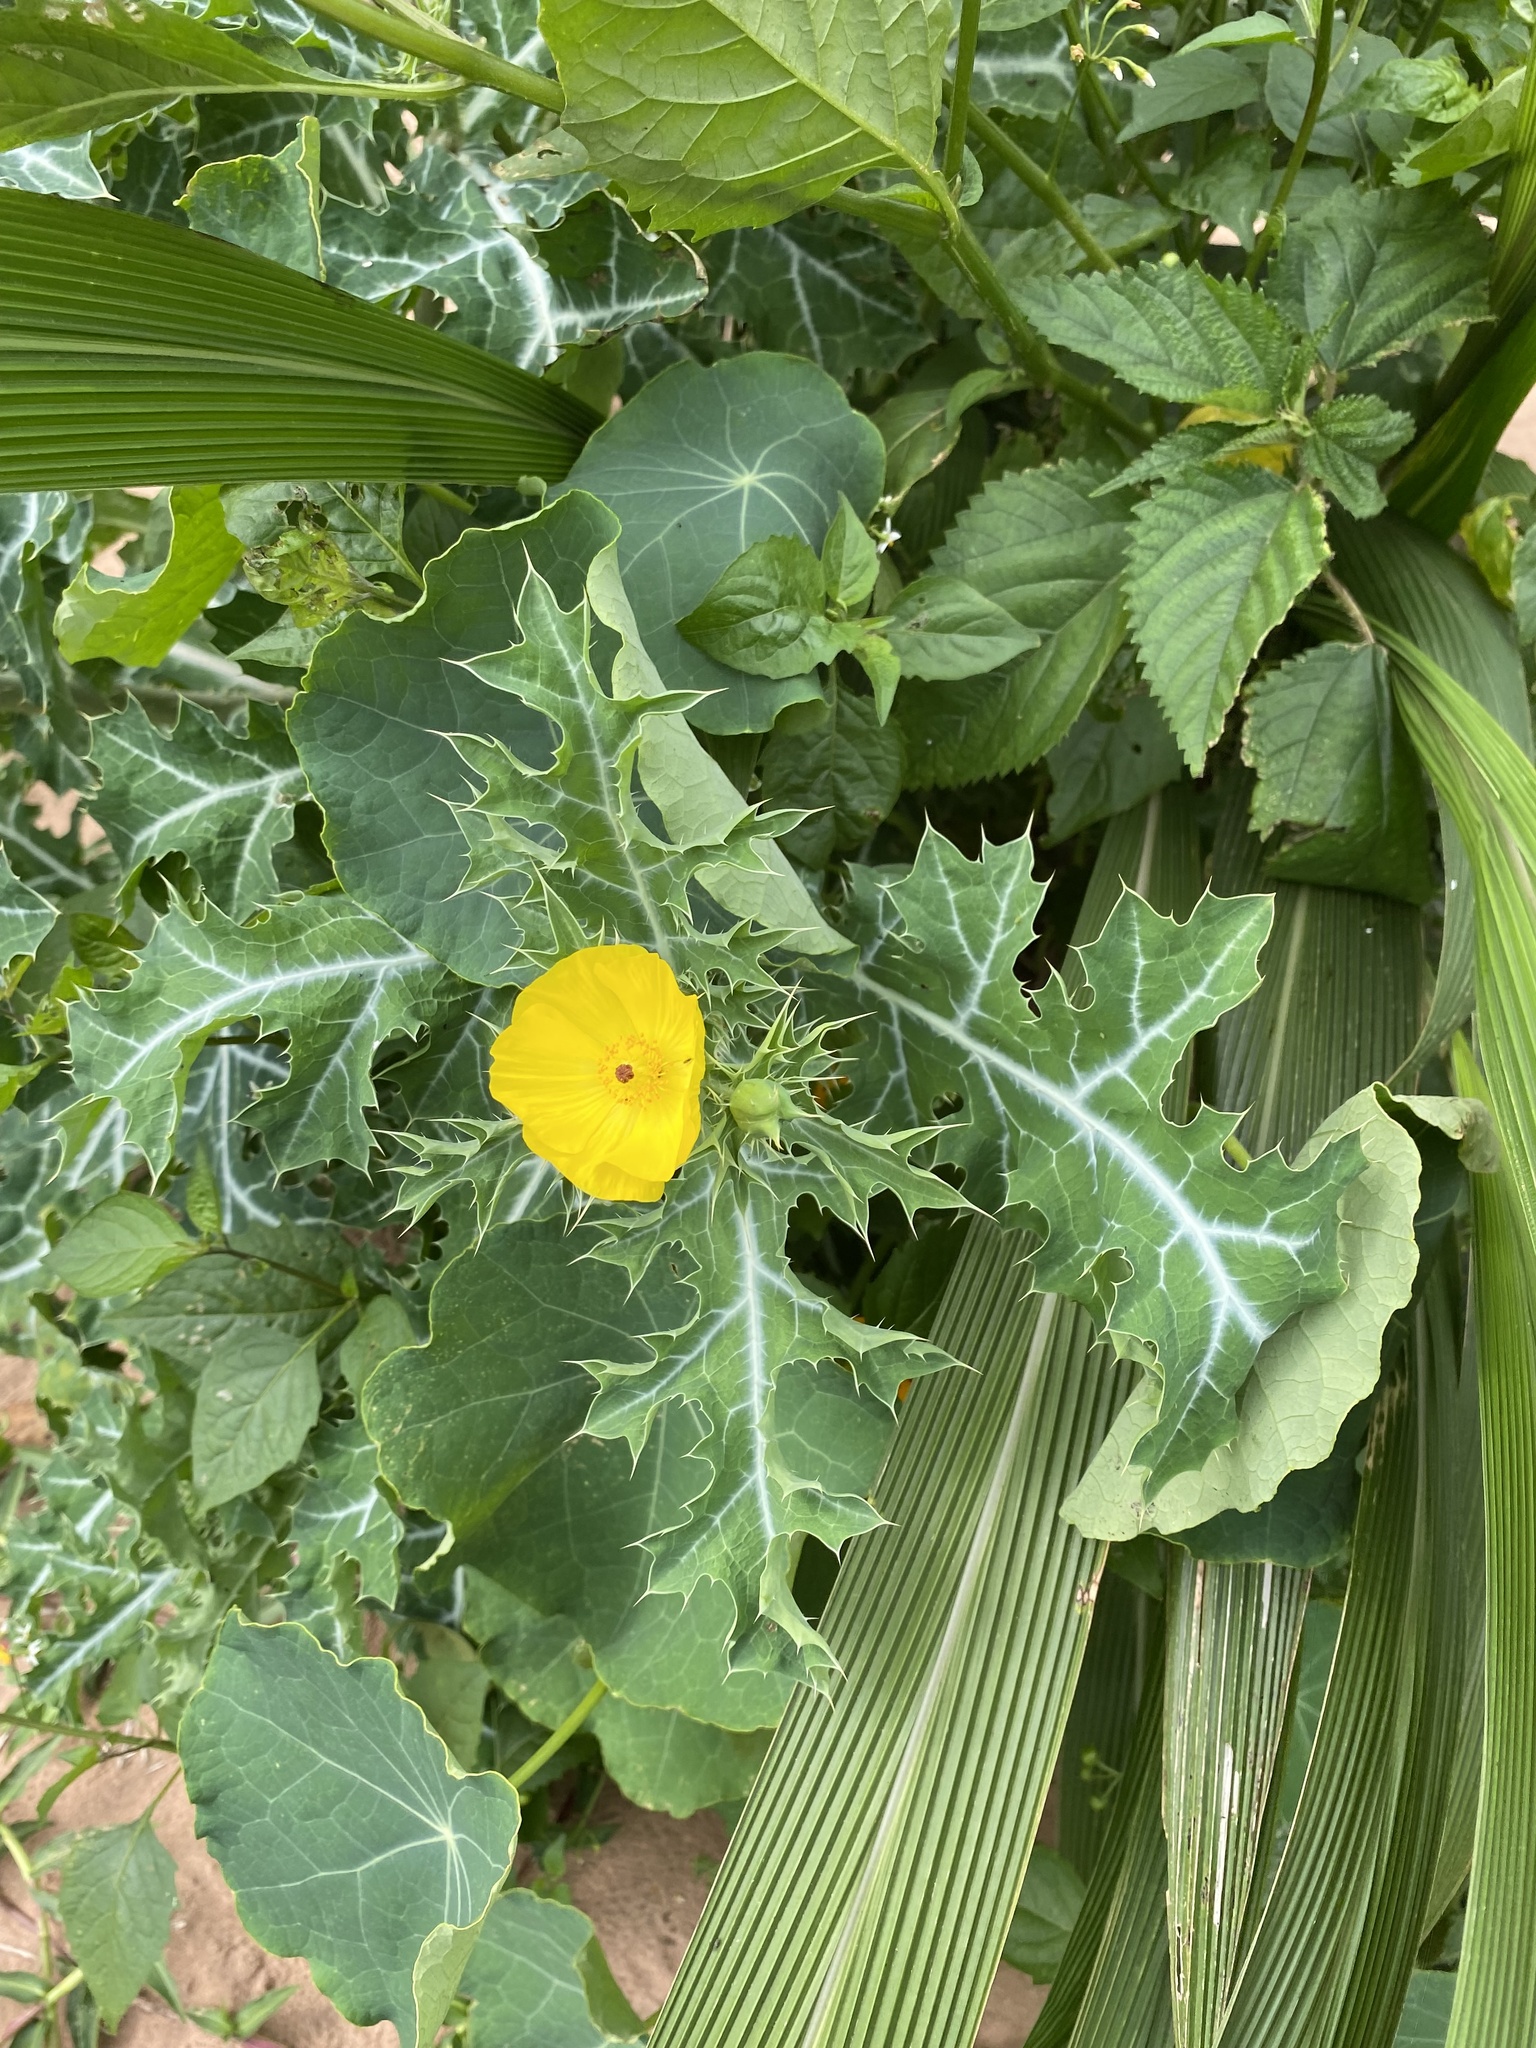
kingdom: Plantae
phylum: Tracheophyta
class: Magnoliopsida
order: Ranunculales
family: Papaveraceae
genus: Argemone
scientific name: Argemone mexicana
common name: Mexican poppy
